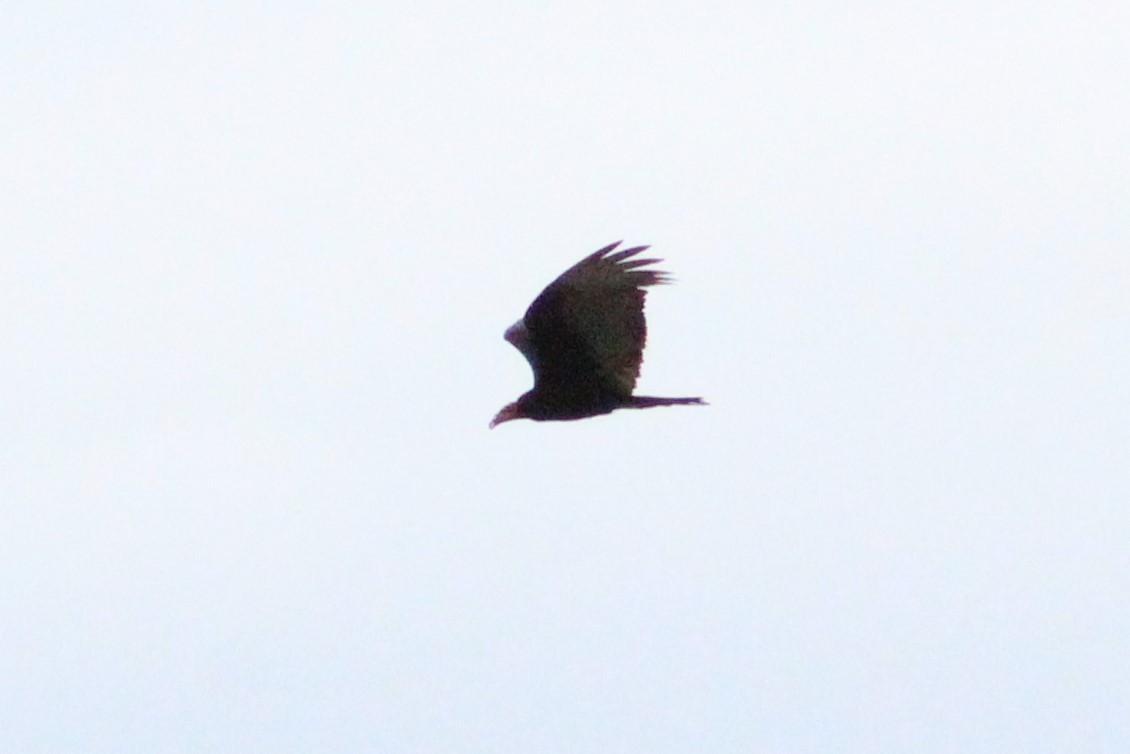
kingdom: Animalia
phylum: Chordata
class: Aves
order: Accipitriformes
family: Cathartidae
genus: Cathartes
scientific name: Cathartes aura
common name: Turkey vulture
